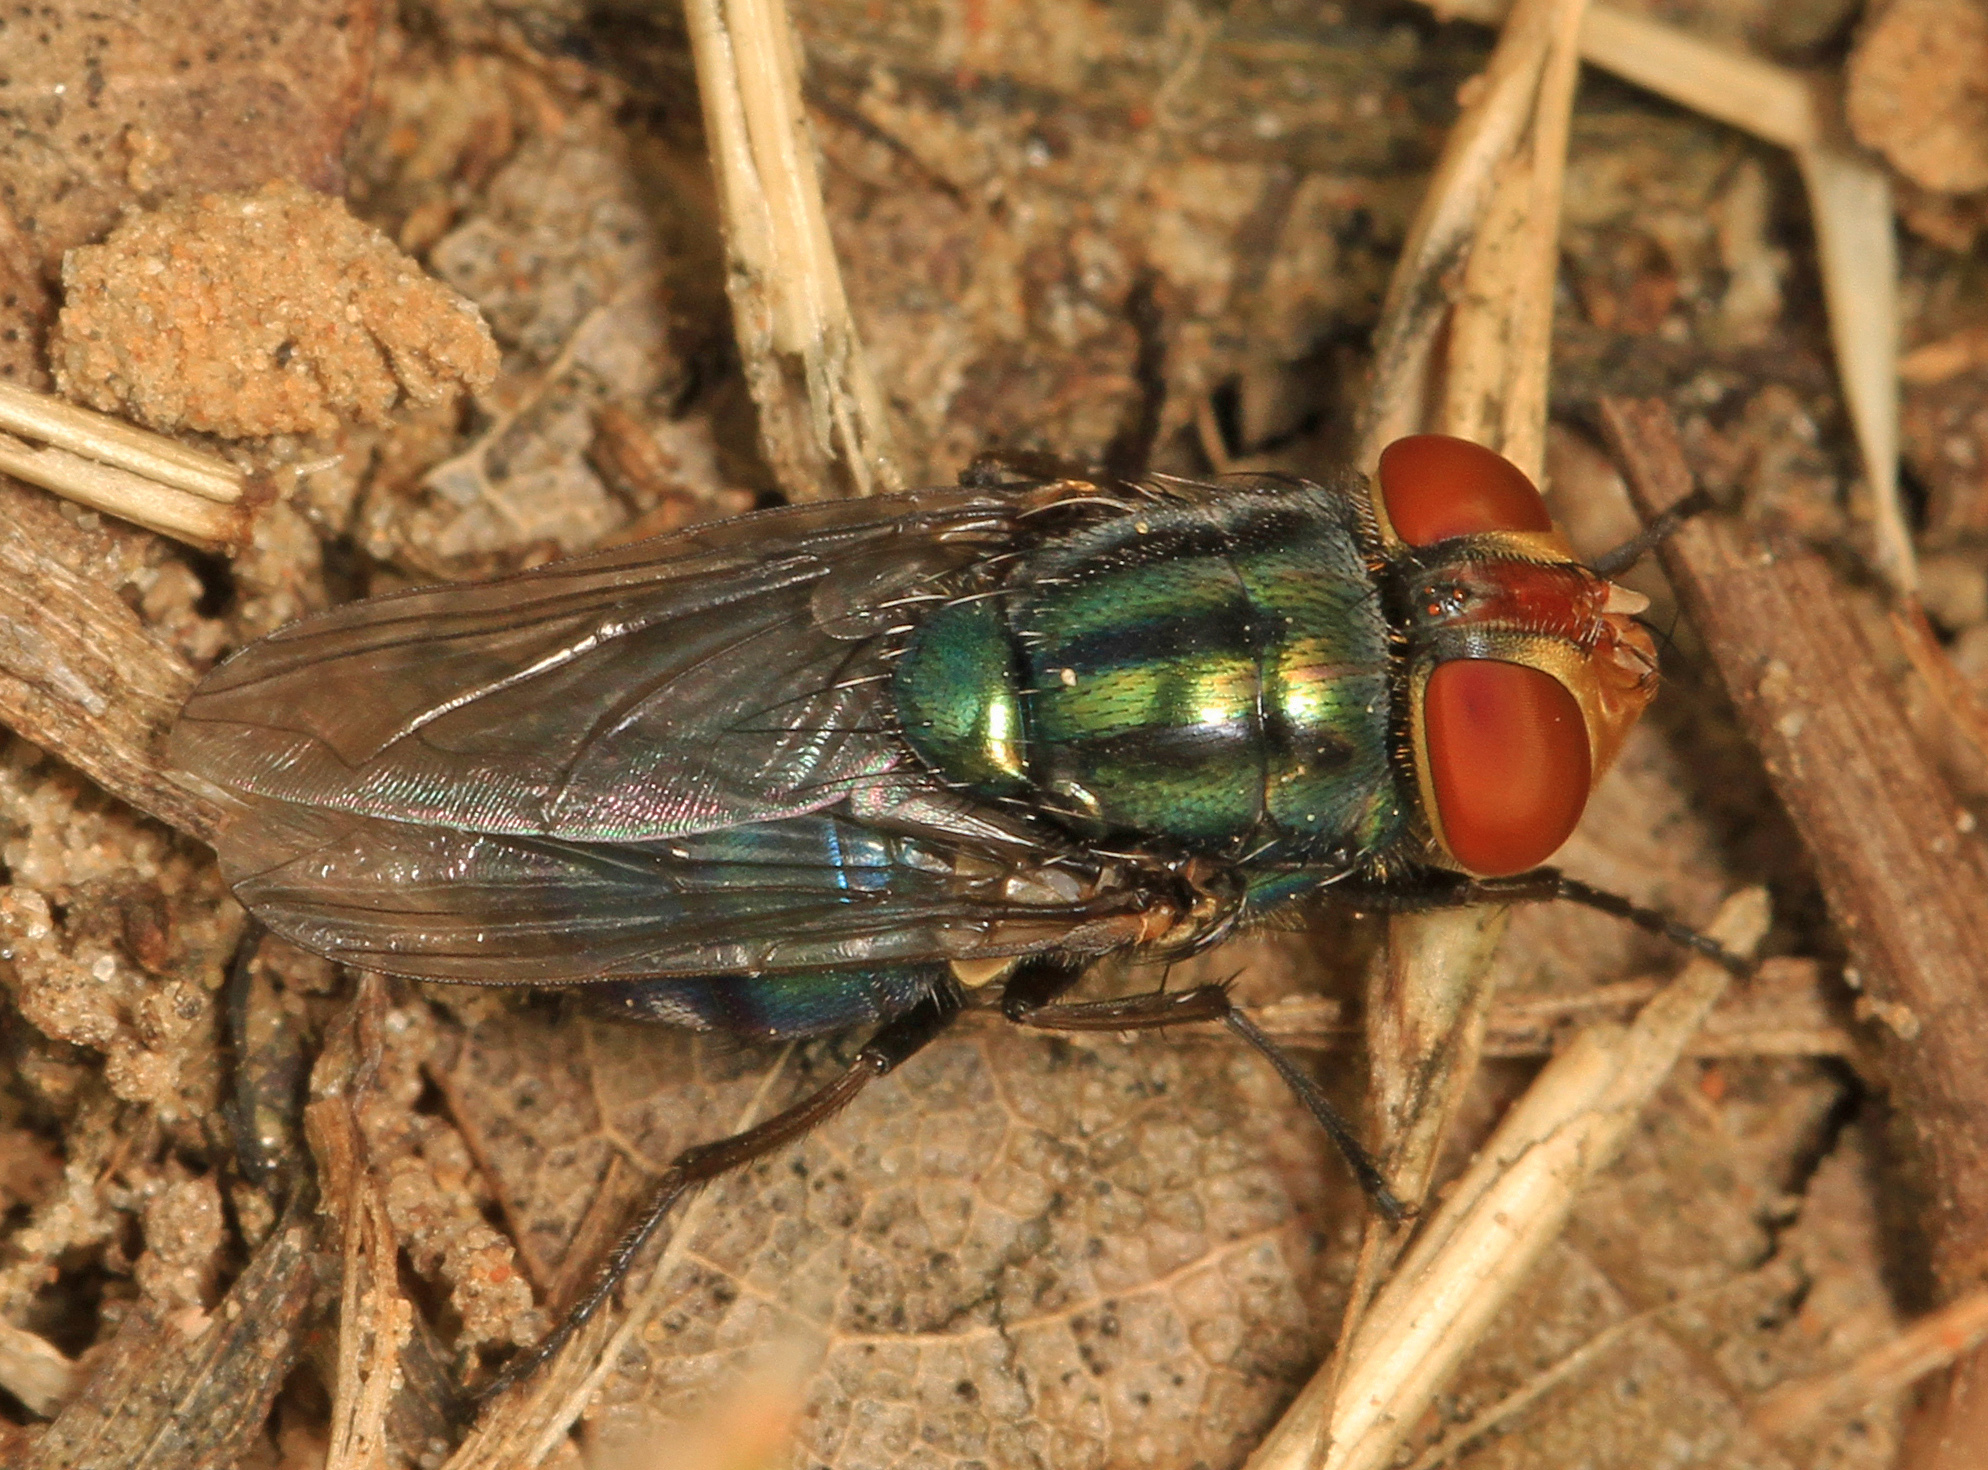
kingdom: Animalia
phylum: Arthropoda
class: Insecta
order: Diptera
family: Calliphoridae
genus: Cochliomyia
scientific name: Cochliomyia macellaria
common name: Secondary screwworm
